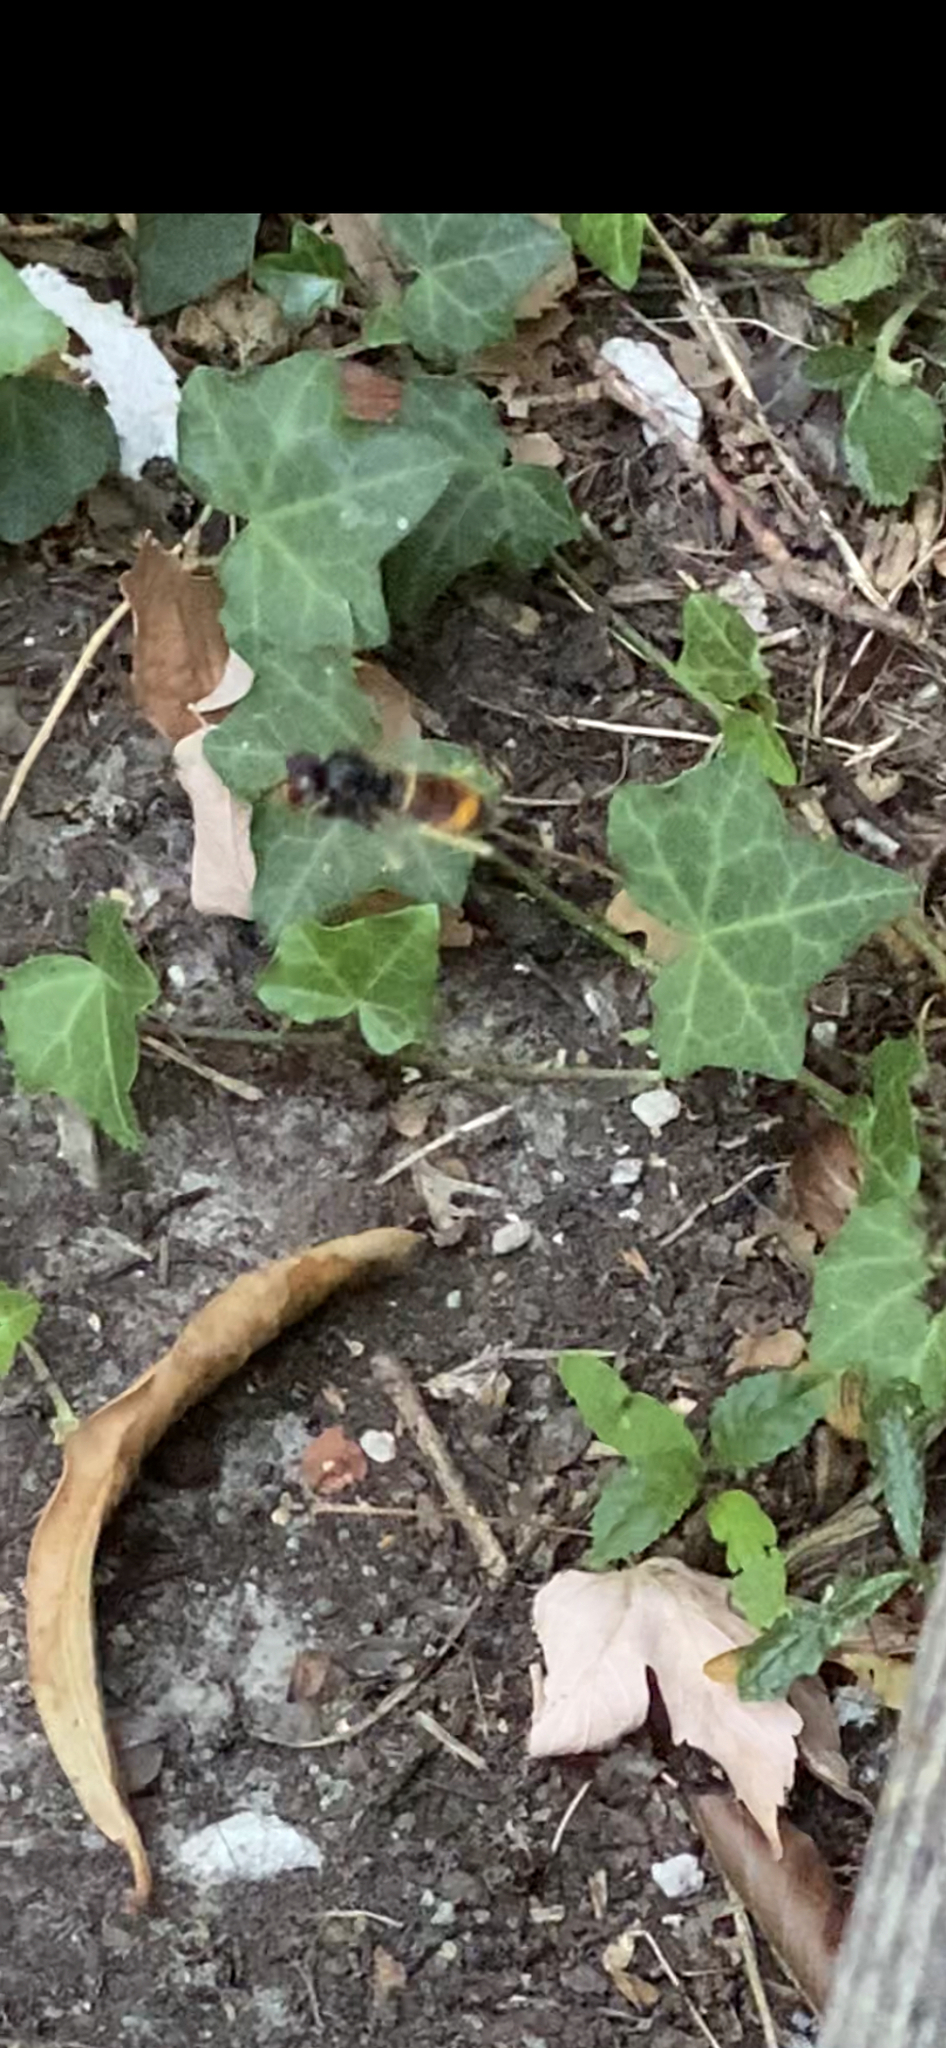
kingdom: Animalia
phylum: Arthropoda
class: Insecta
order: Hymenoptera
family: Vespidae
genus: Vespa
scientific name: Vespa velutina
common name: Asian hornet
